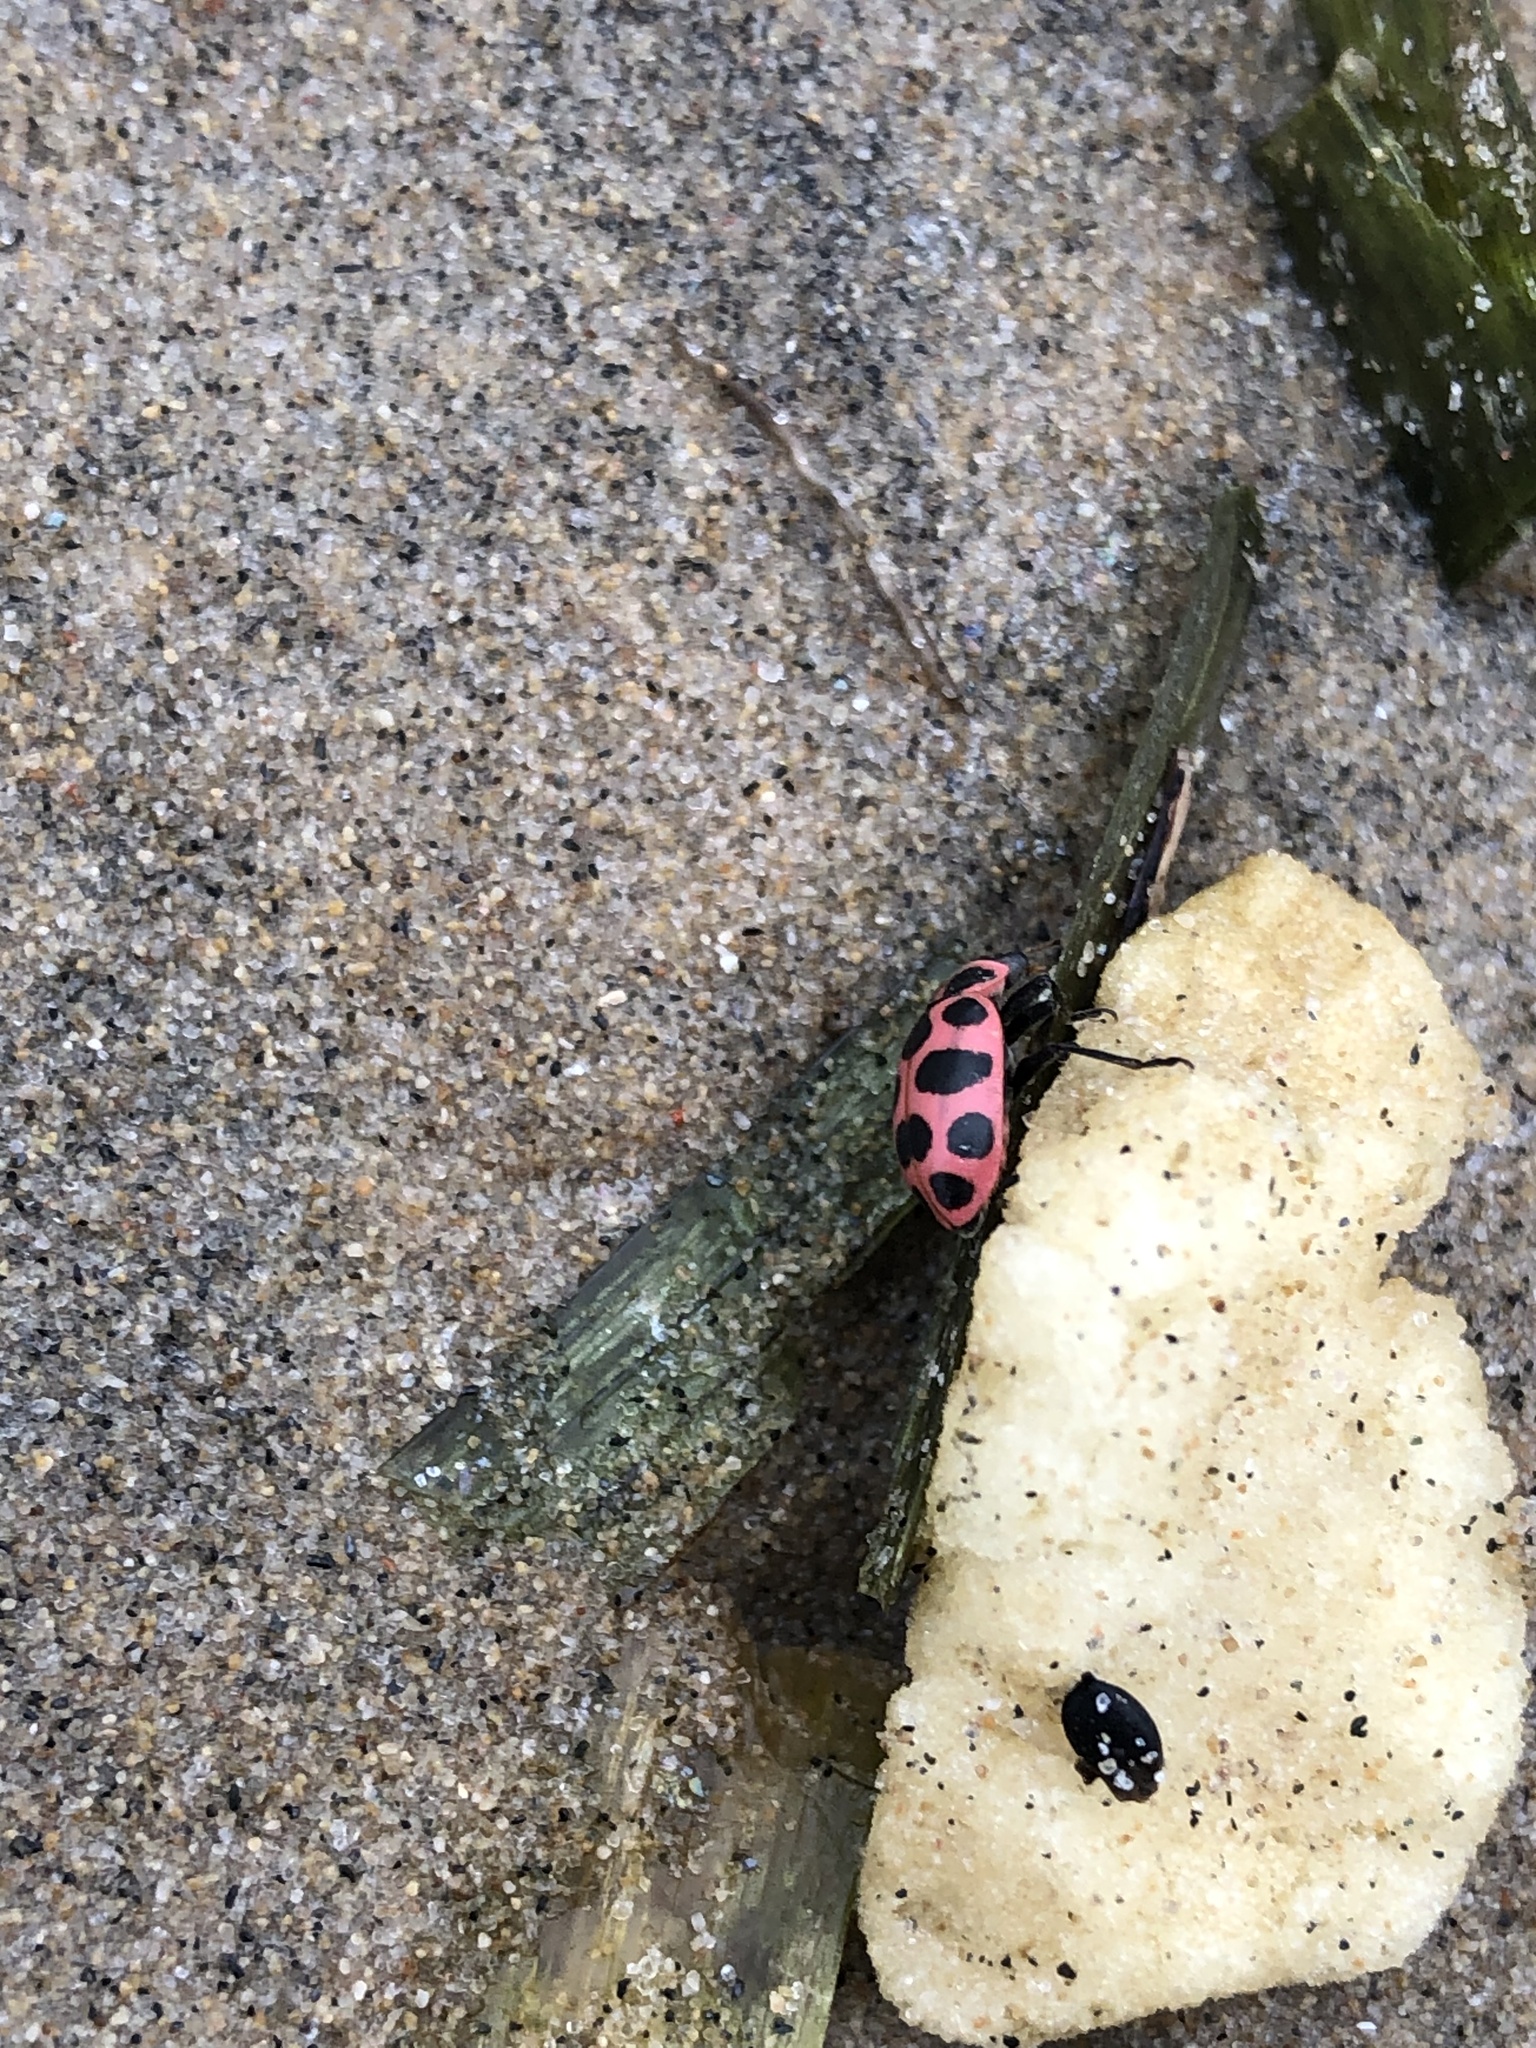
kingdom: Animalia
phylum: Arthropoda
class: Insecta
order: Coleoptera
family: Coccinellidae
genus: Coleomegilla
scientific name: Coleomegilla maculata
